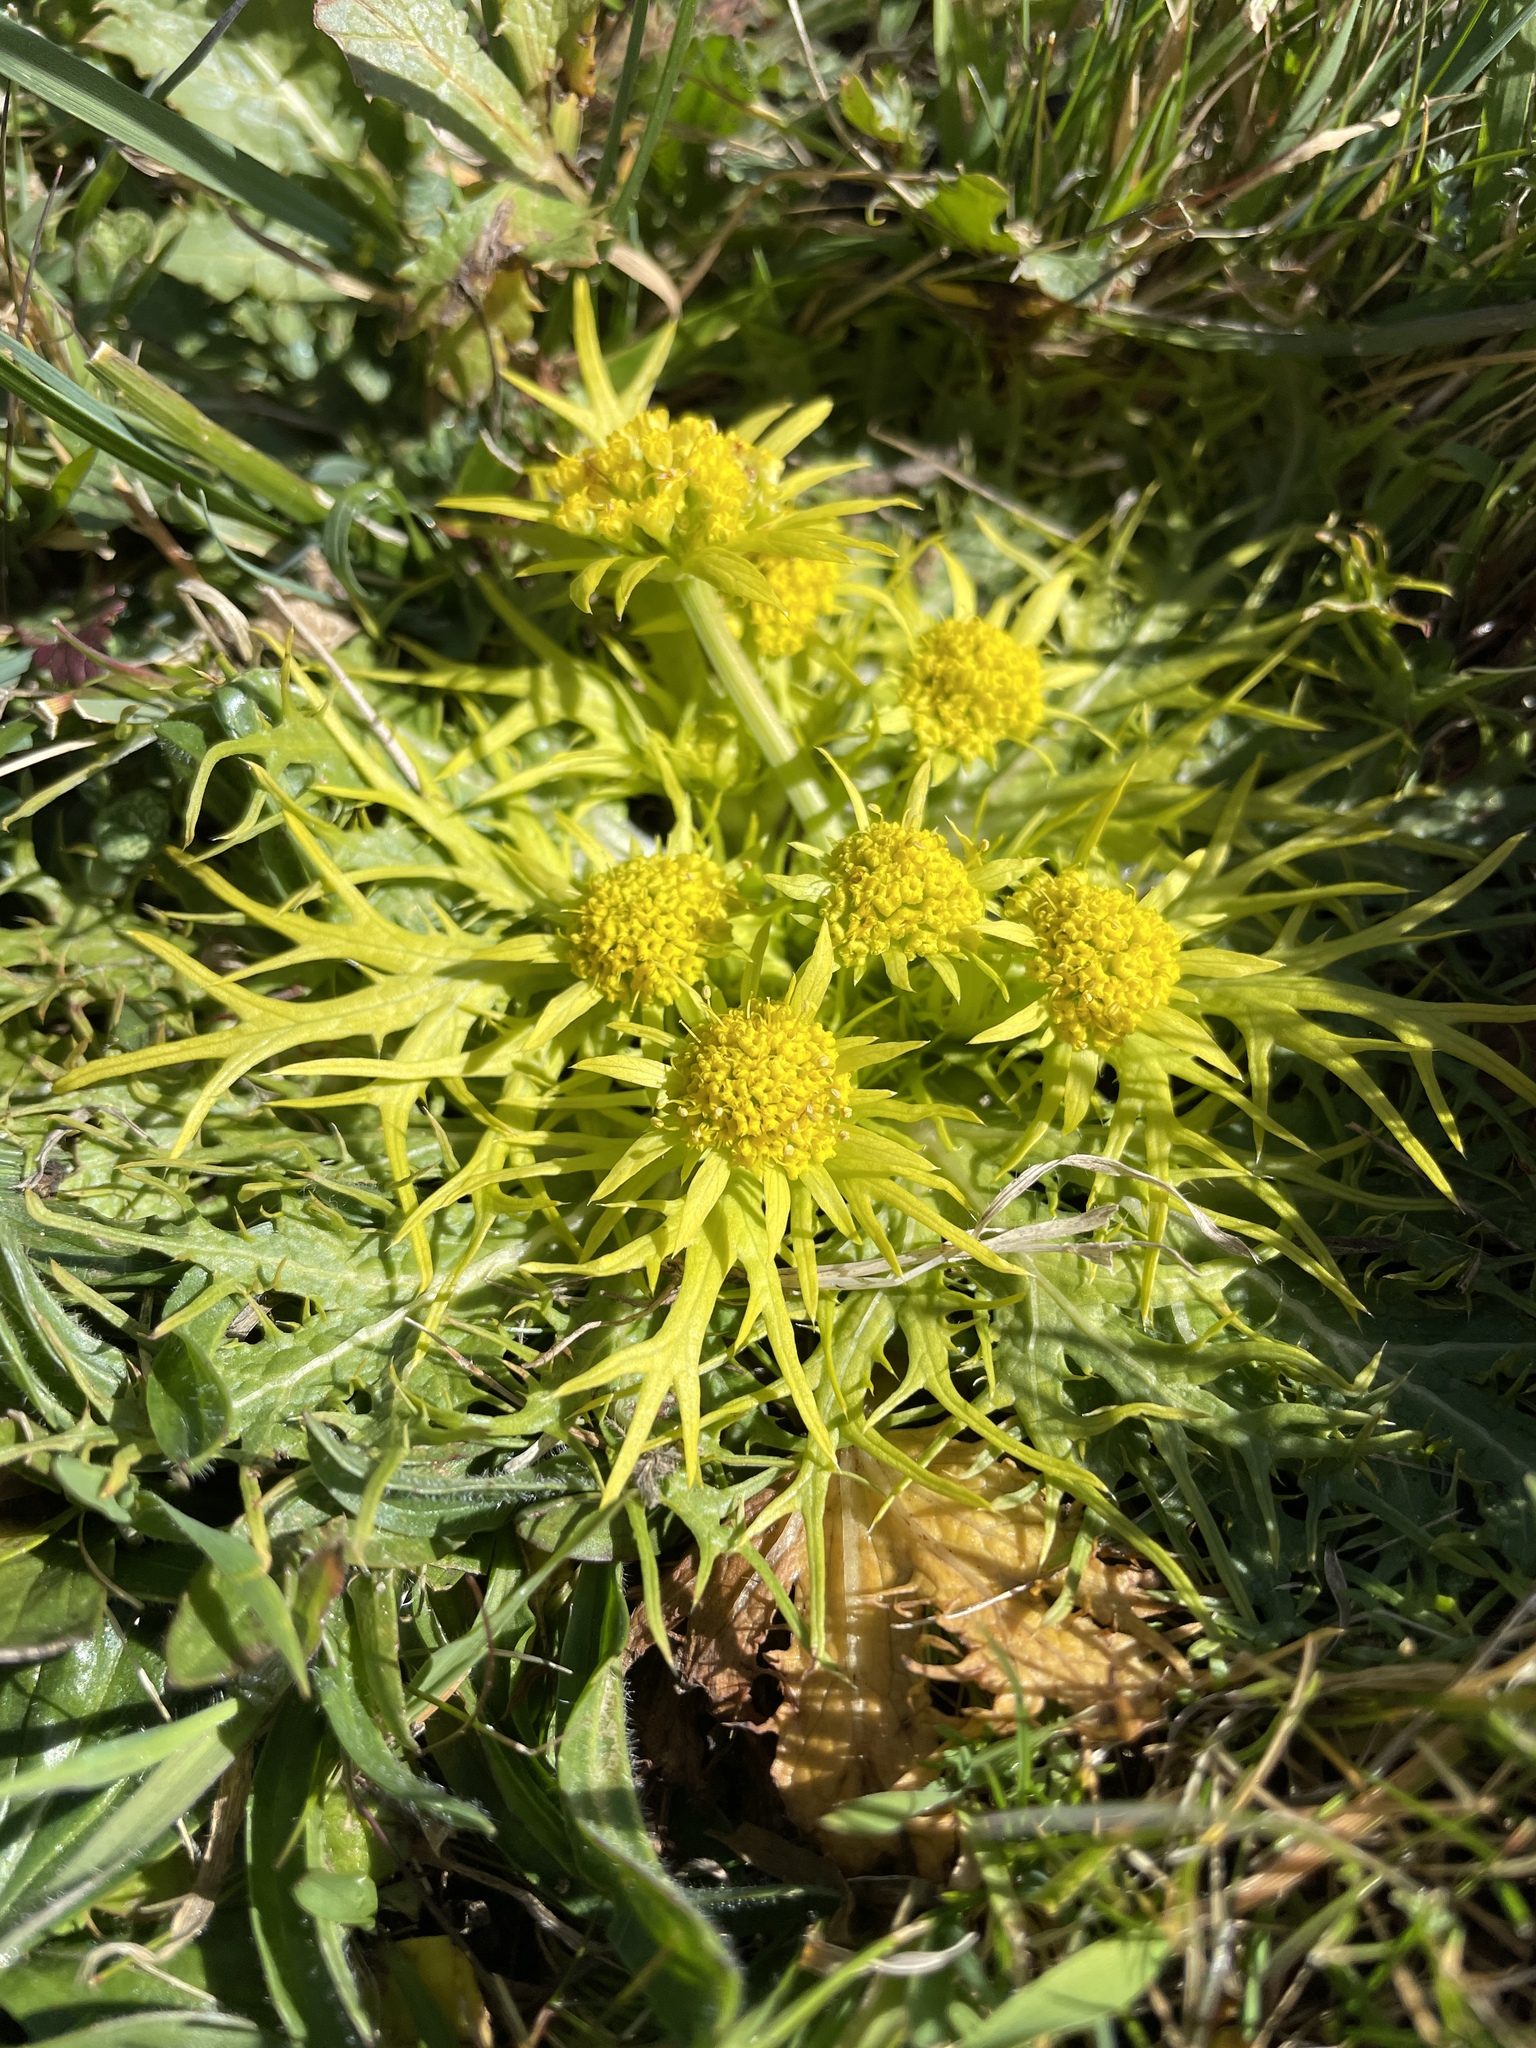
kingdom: Plantae
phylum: Tracheophyta
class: Magnoliopsida
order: Apiales
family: Apiaceae
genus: Sanicula
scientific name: Sanicula arctopoides
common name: Footsteps-of-spring
